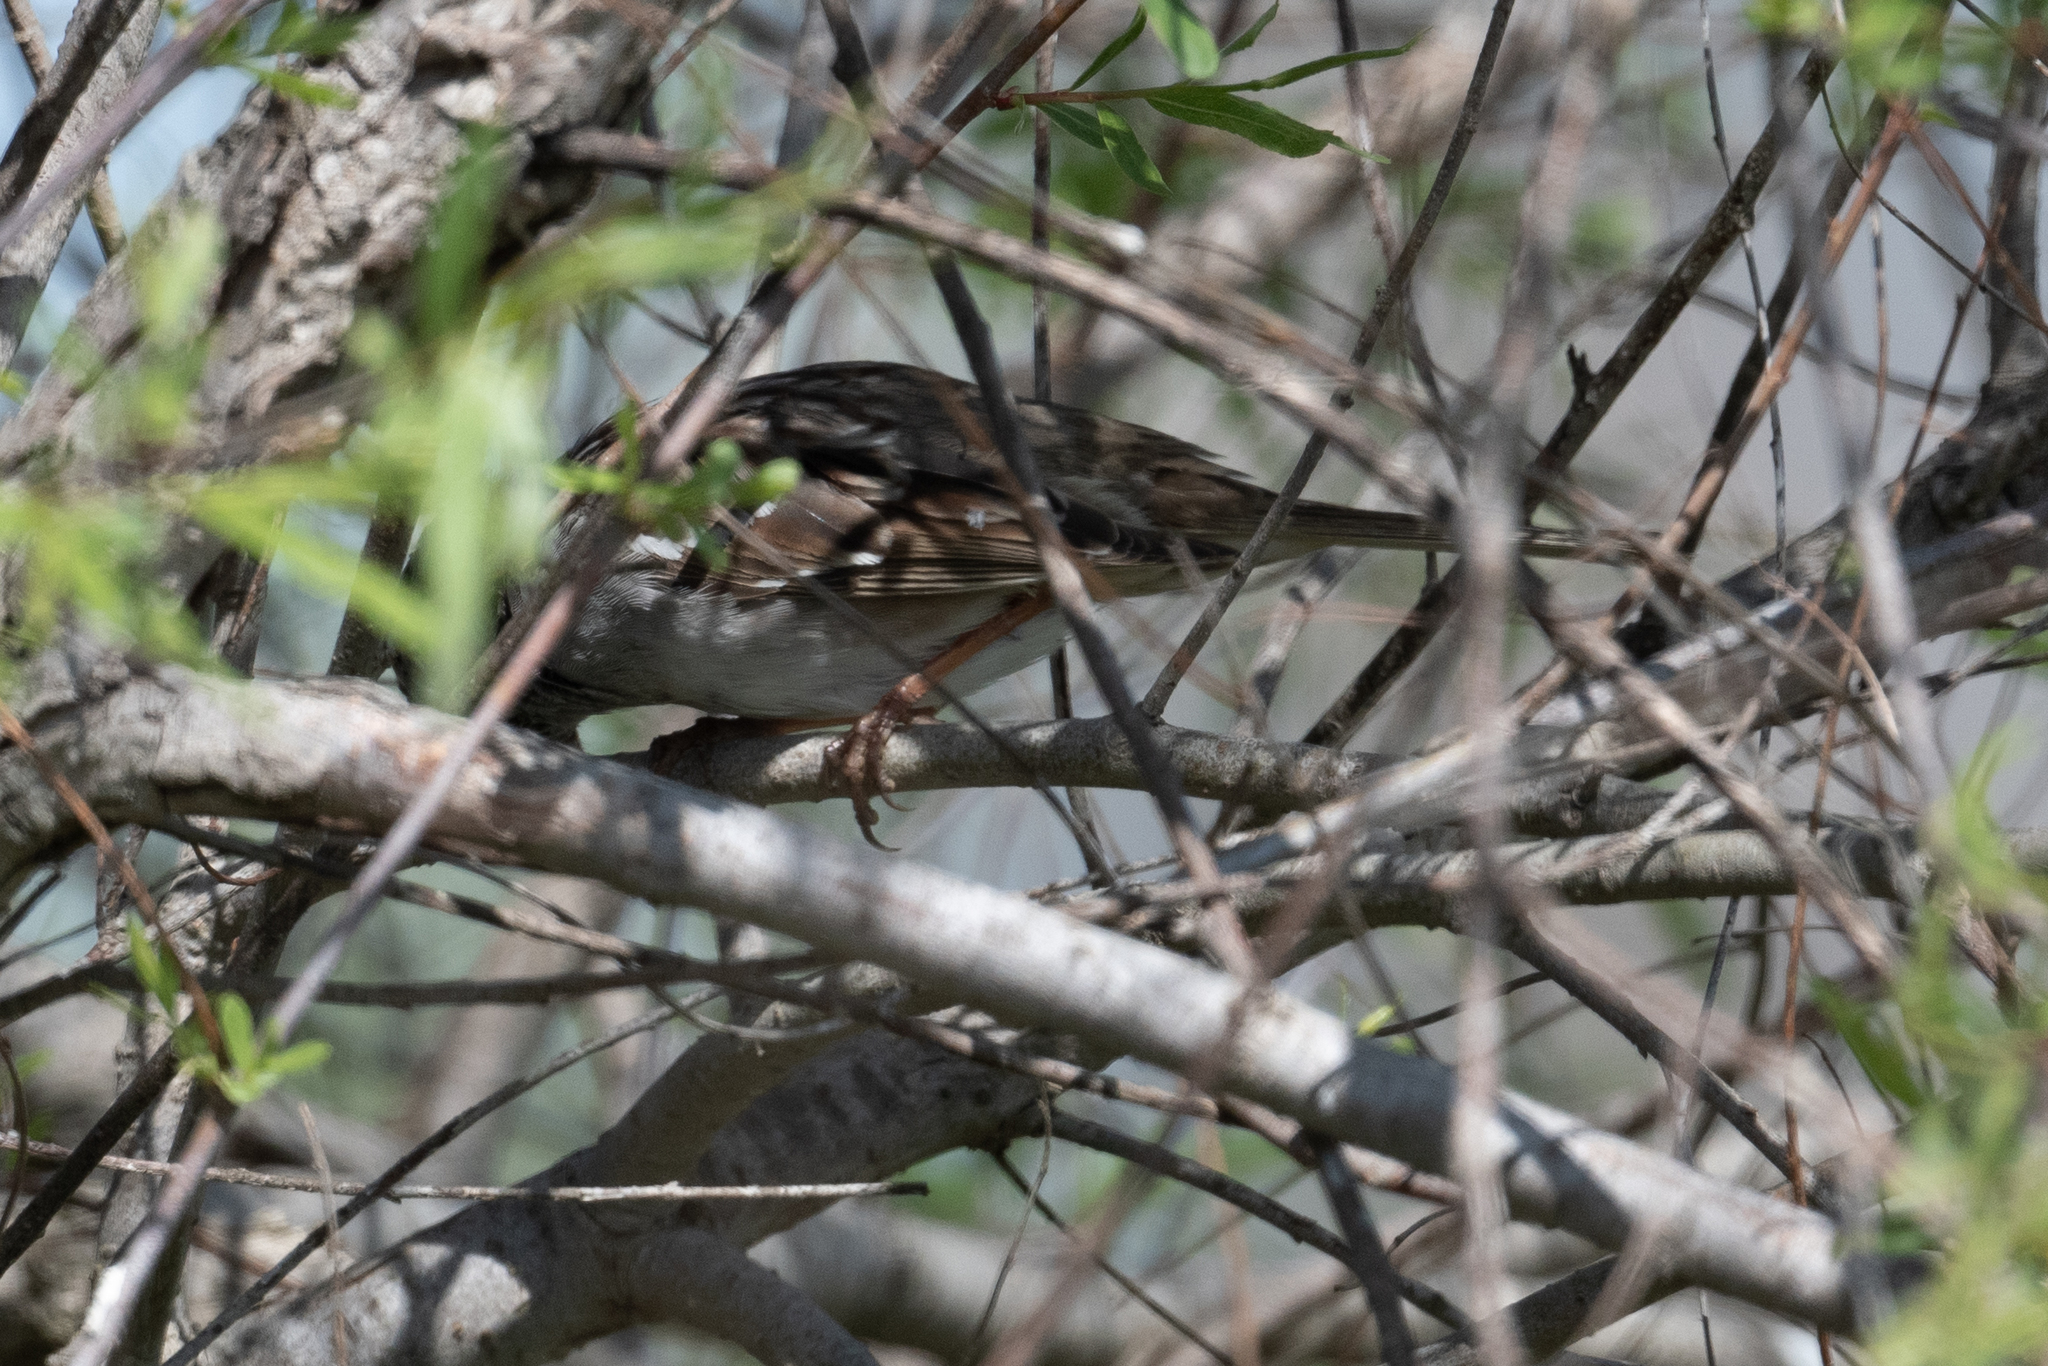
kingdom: Animalia
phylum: Chordata
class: Aves
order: Passeriformes
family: Passerellidae
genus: Zonotrichia
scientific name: Zonotrichia albicollis
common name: White-throated sparrow
